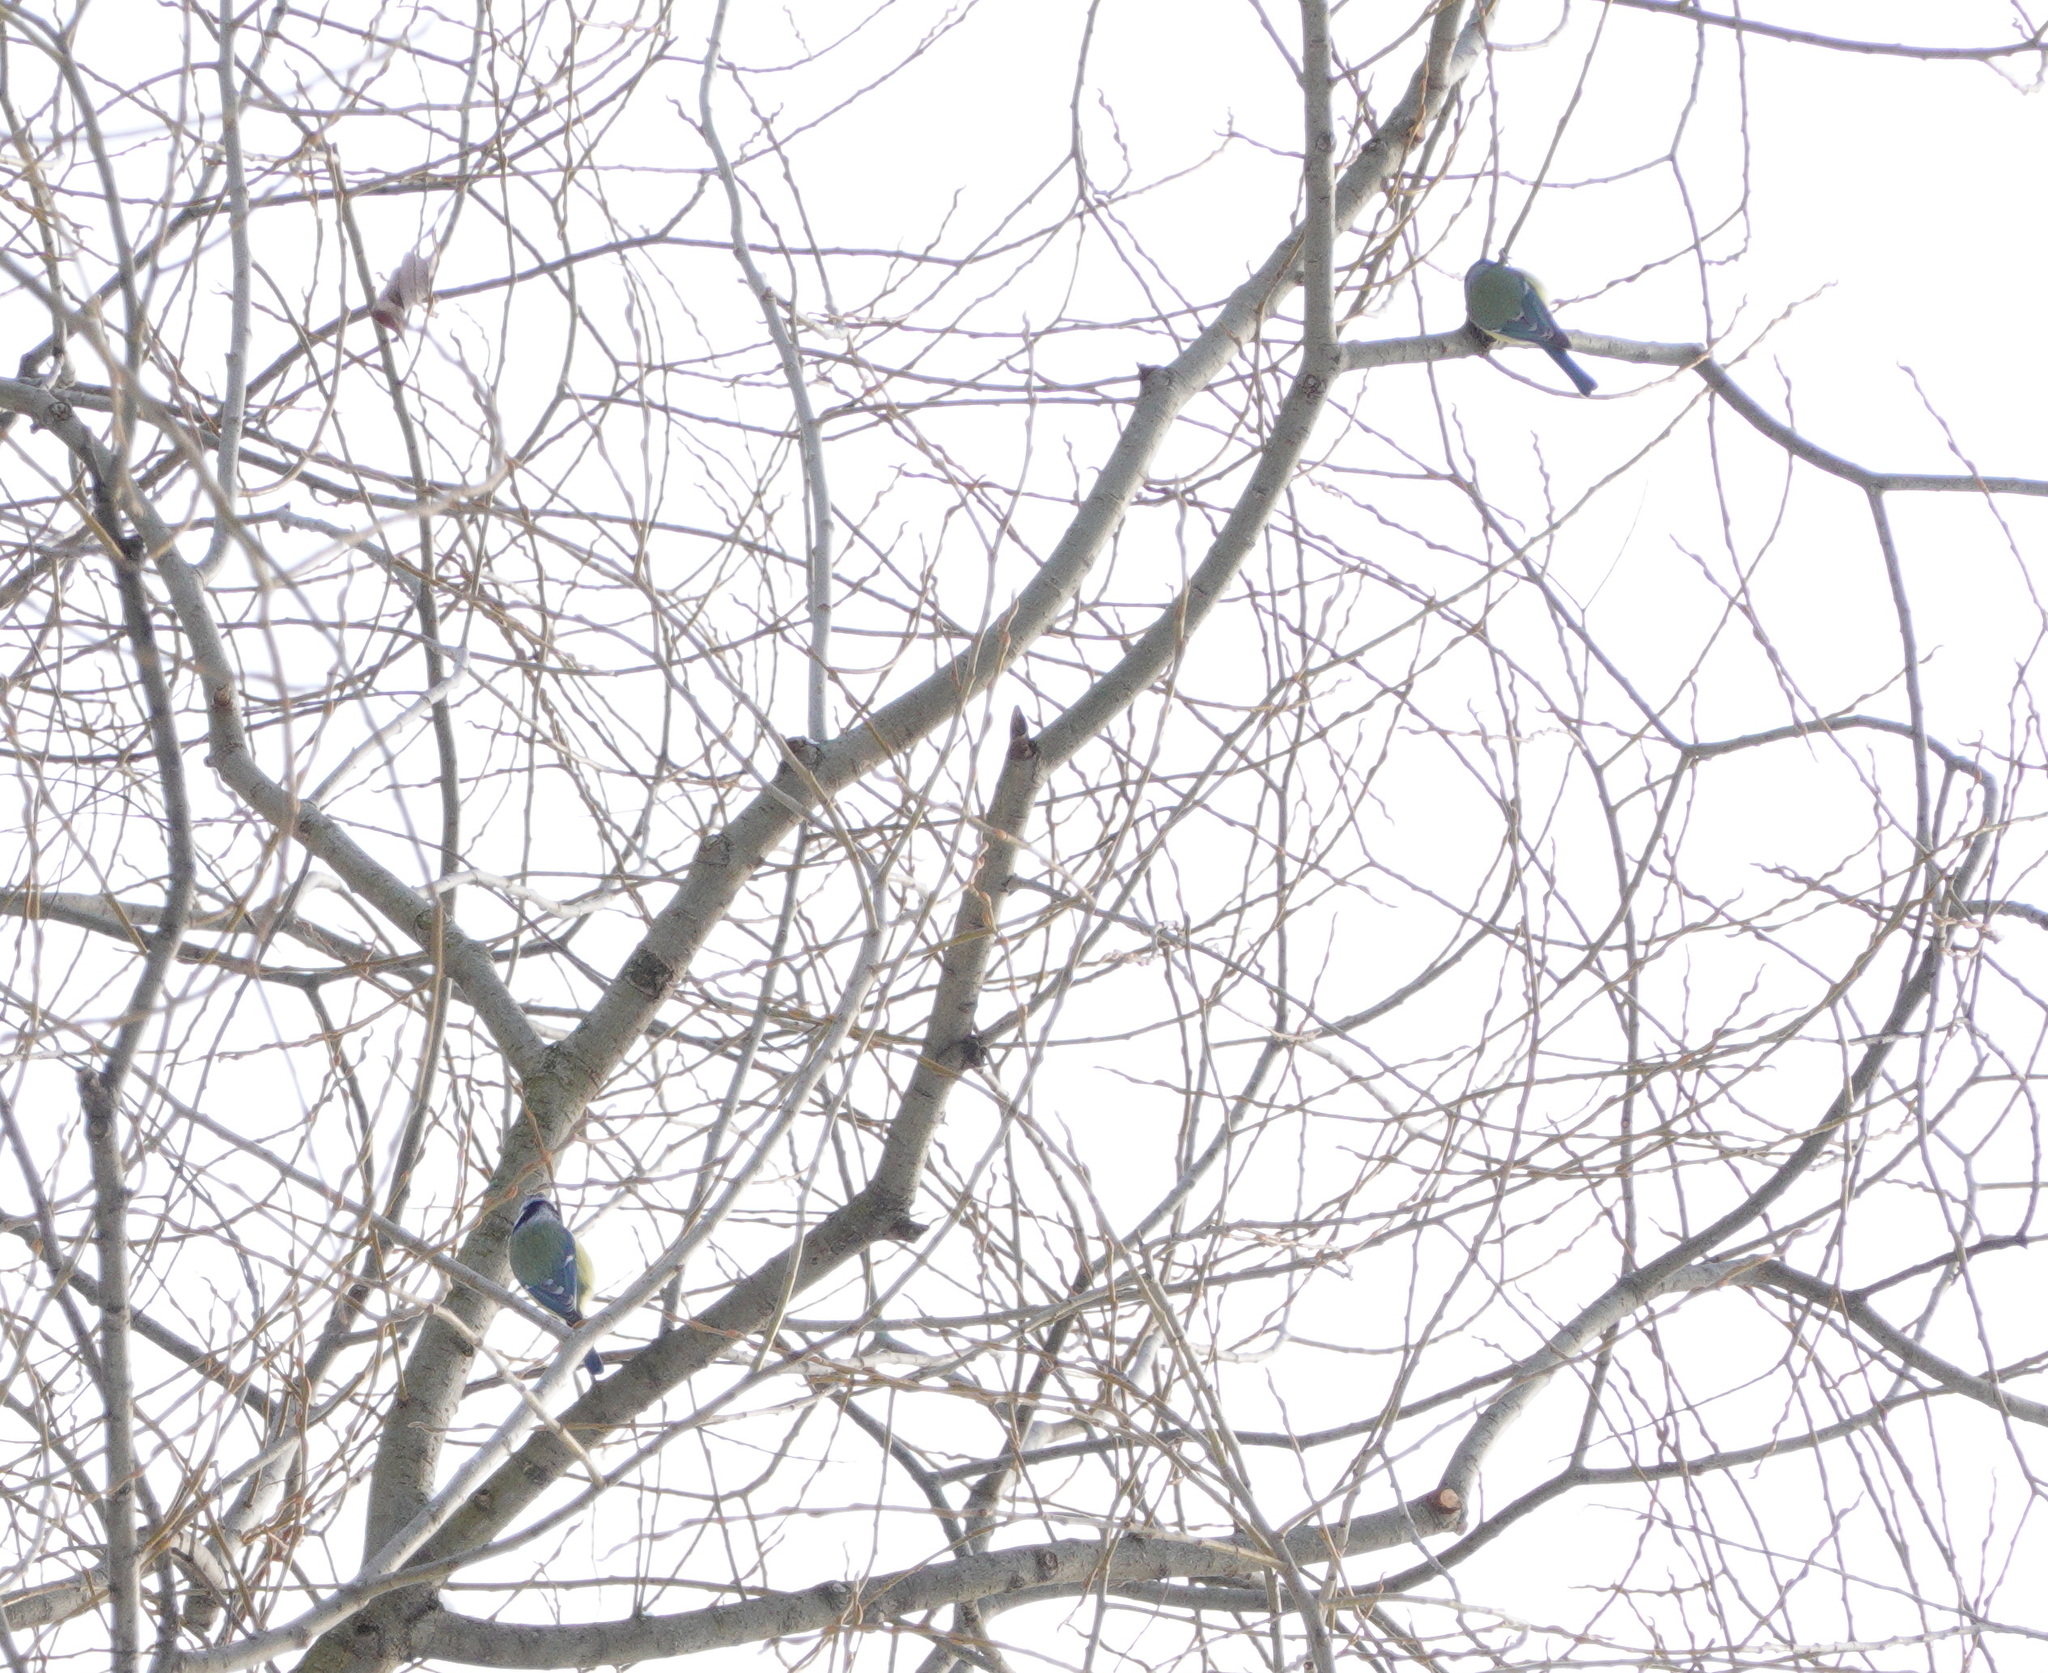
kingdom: Animalia
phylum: Chordata
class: Aves
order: Passeriformes
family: Paridae
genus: Cyanistes
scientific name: Cyanistes caeruleus
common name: Eurasian blue tit
